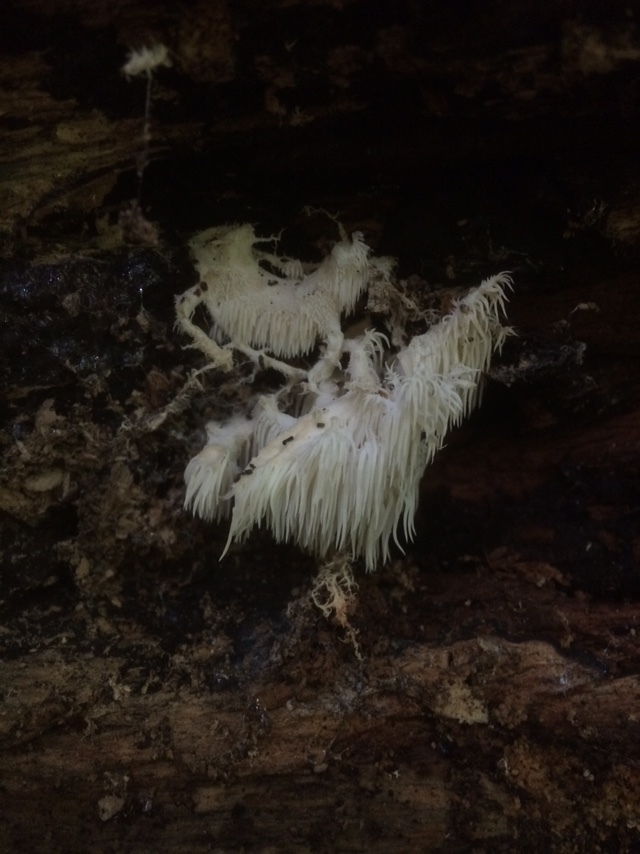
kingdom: Fungi
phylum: Basidiomycota
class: Agaricomycetes
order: Russulales
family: Hericiaceae
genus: Hericium
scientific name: Hericium coralloides
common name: Coral tooth
